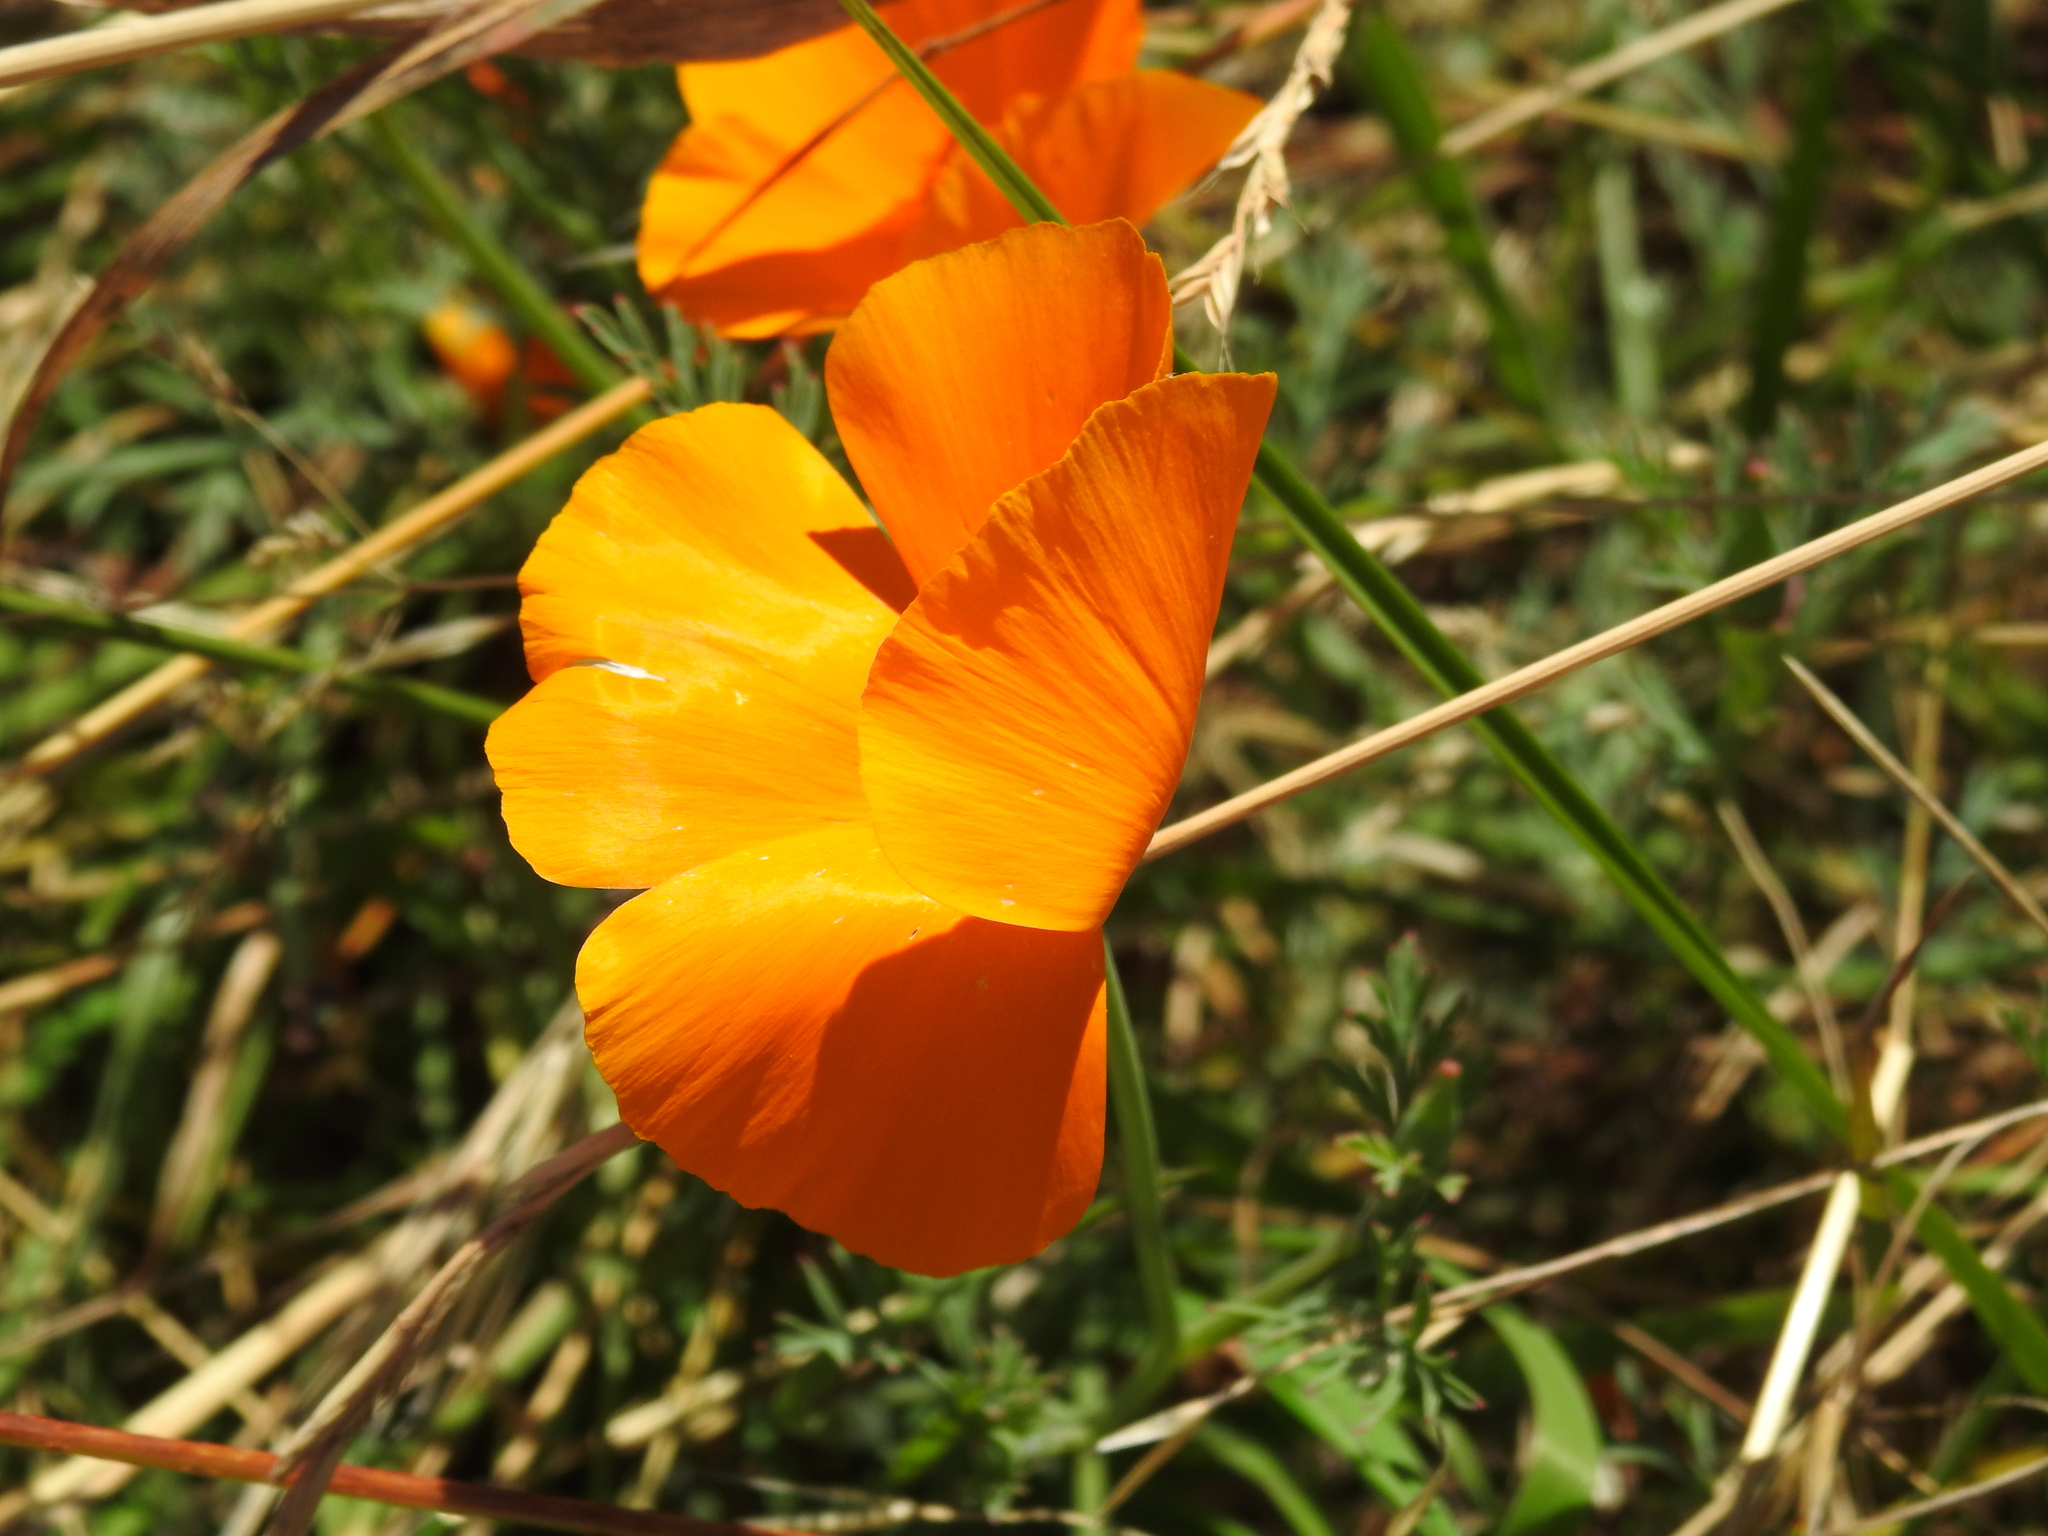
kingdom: Plantae
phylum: Tracheophyta
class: Magnoliopsida
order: Ranunculales
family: Papaveraceae
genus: Eschscholzia
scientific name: Eschscholzia californica
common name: California poppy
